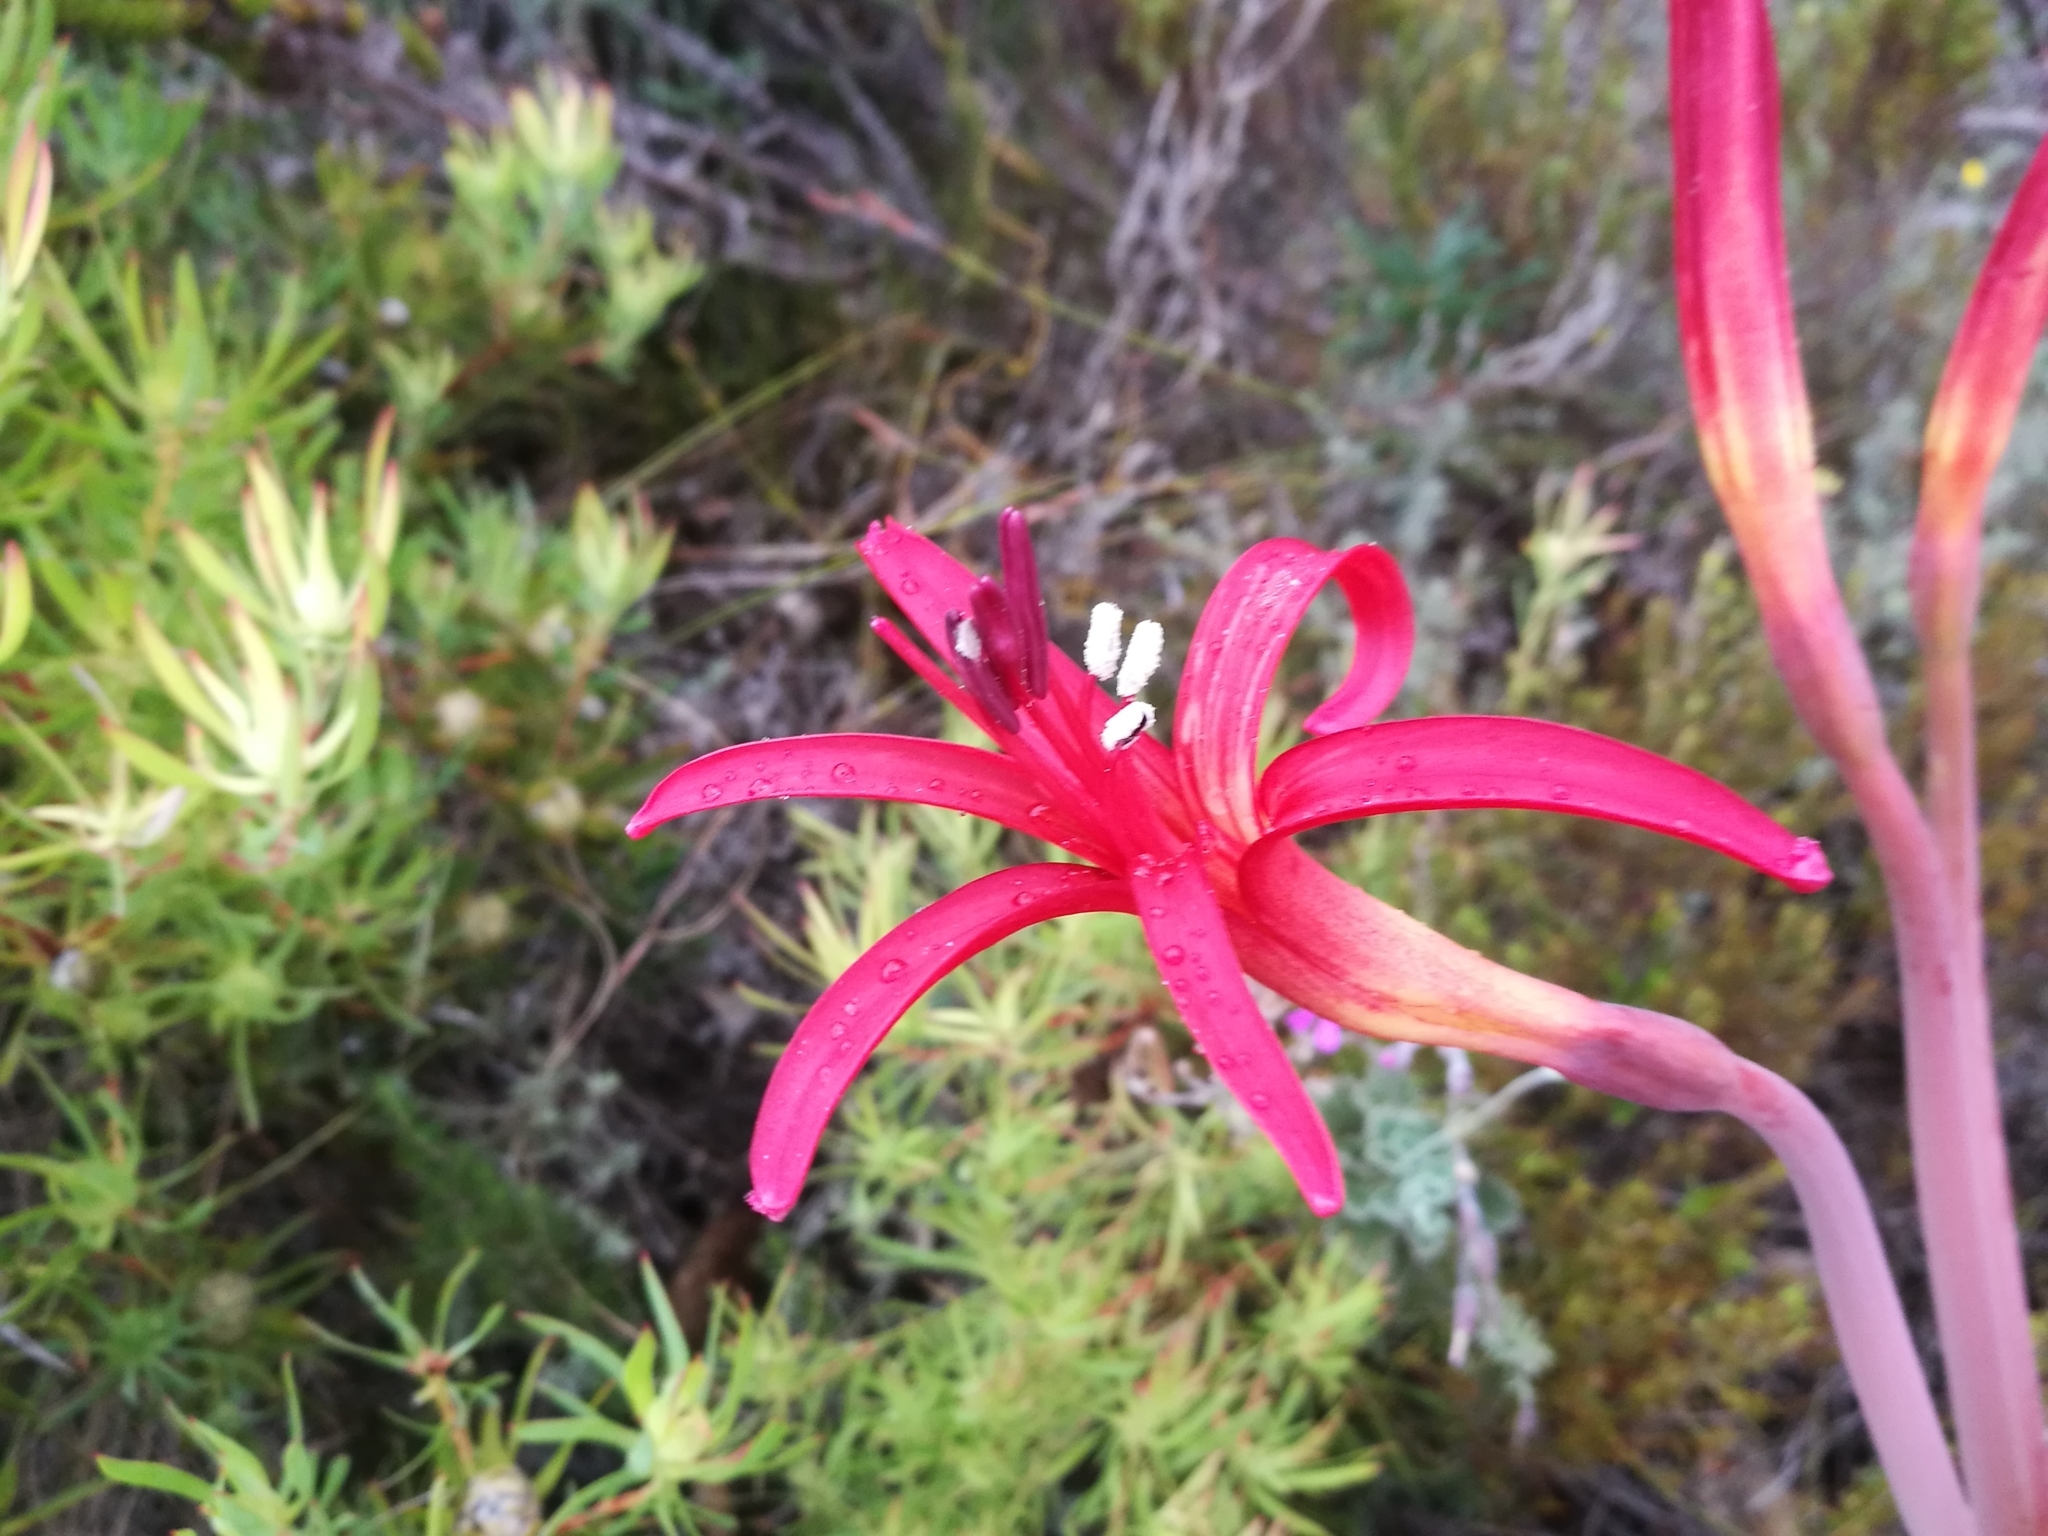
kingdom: Plantae
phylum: Tracheophyta
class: Liliopsida
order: Asparagales
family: Amaryllidaceae
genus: Brunsvigia
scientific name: Brunsvigia litoralis
